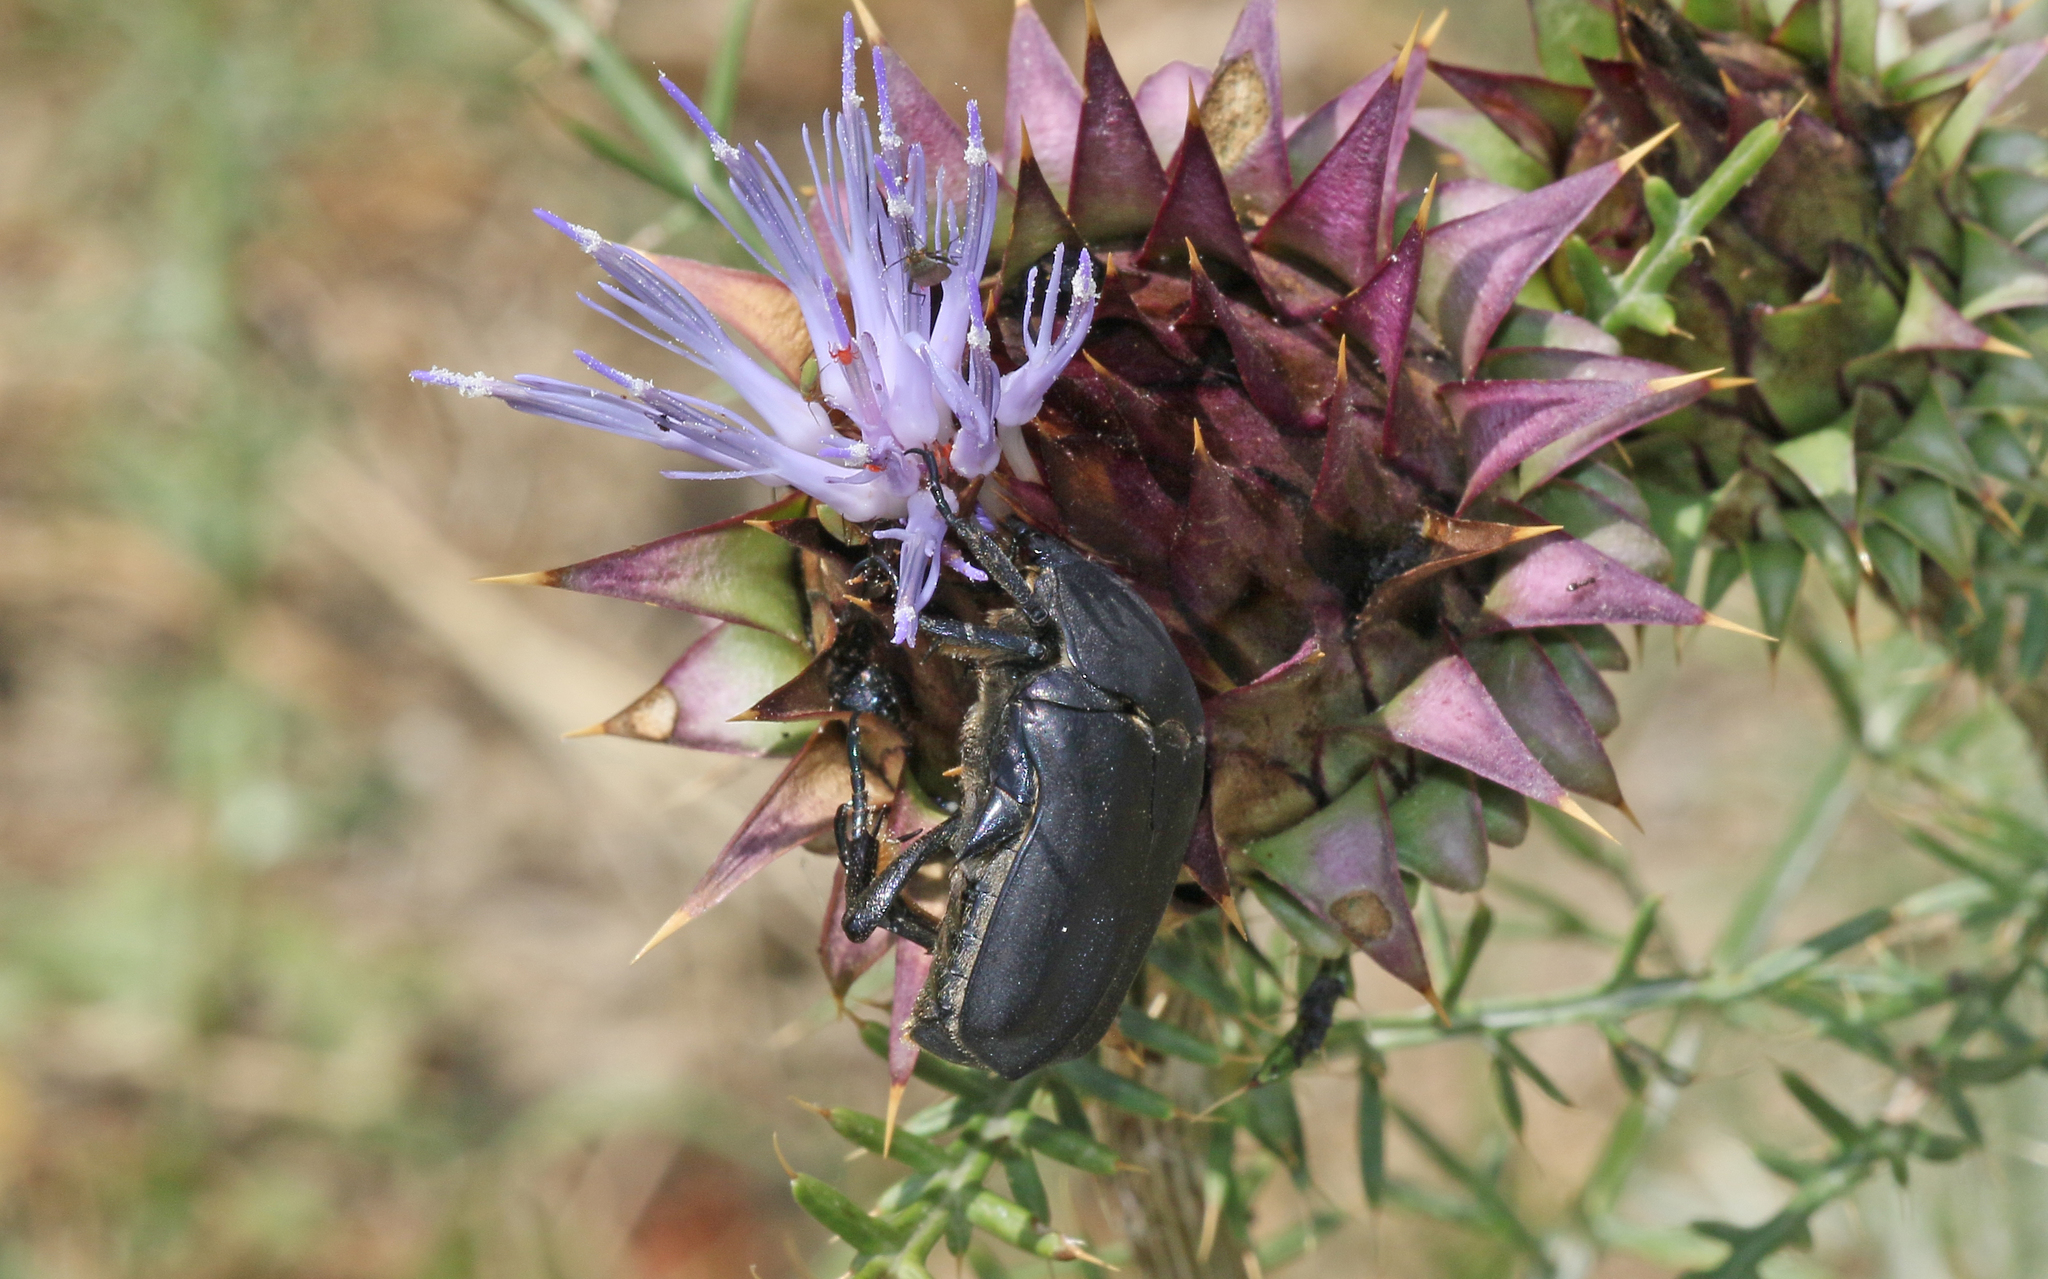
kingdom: Animalia
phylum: Arthropoda
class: Insecta
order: Coleoptera
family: Scarabaeidae
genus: Protaetia
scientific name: Protaetia opaca
